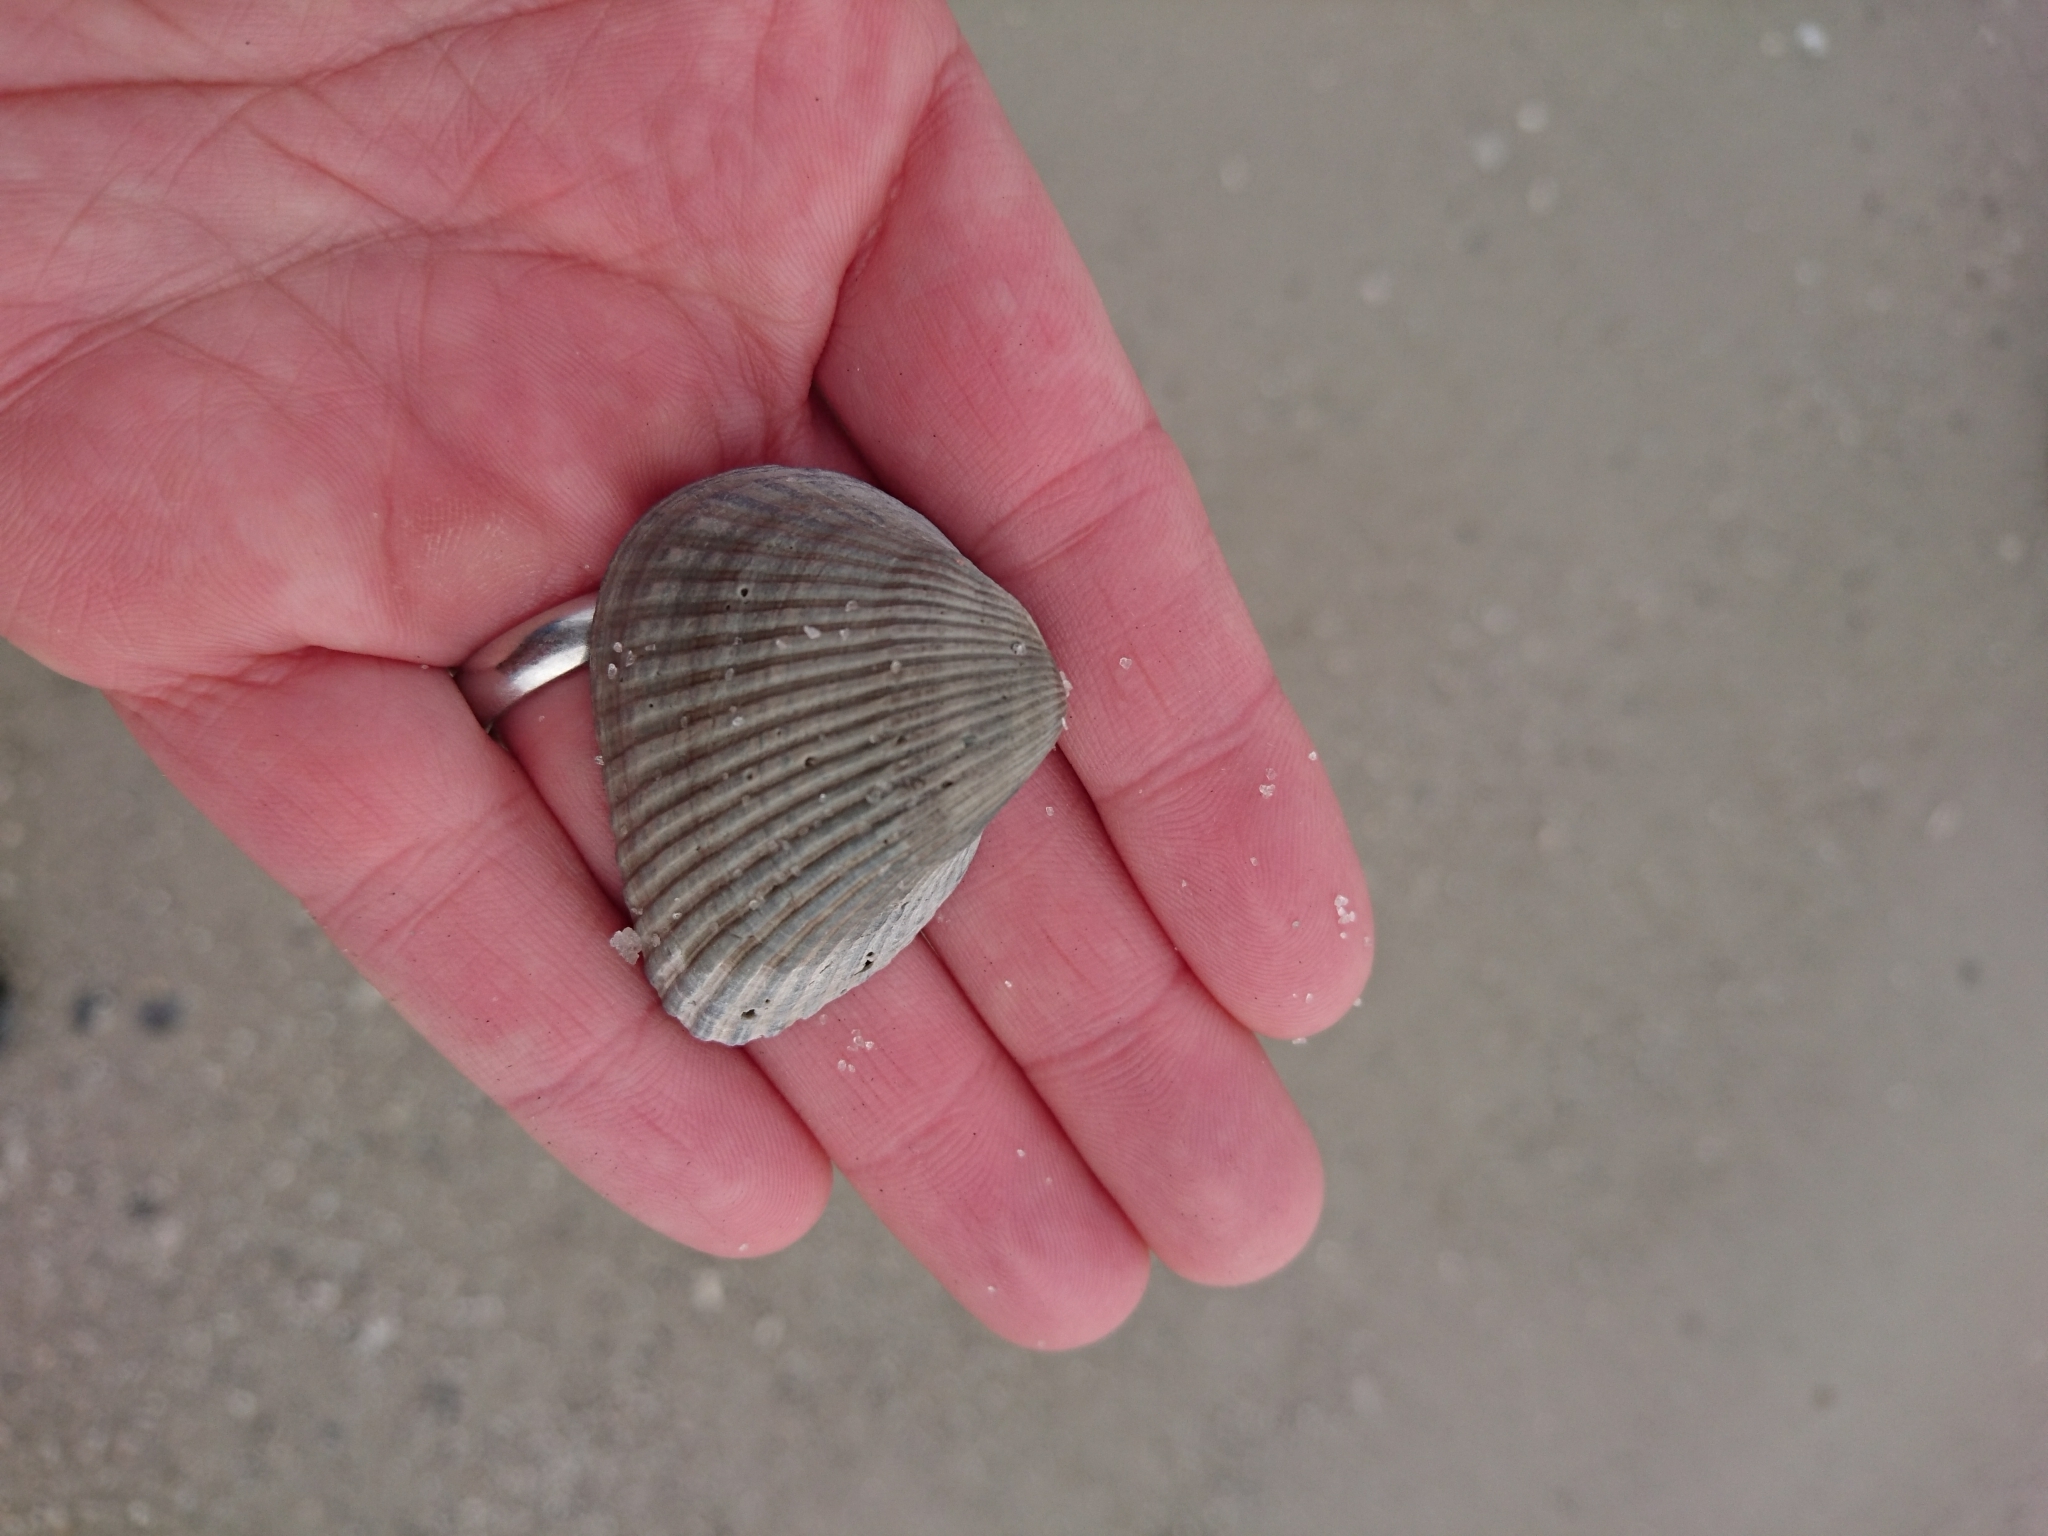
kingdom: Animalia
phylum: Mollusca
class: Bivalvia
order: Arcida
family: Noetiidae
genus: Noetia
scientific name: Noetia ponderosa
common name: Ponderous ark
